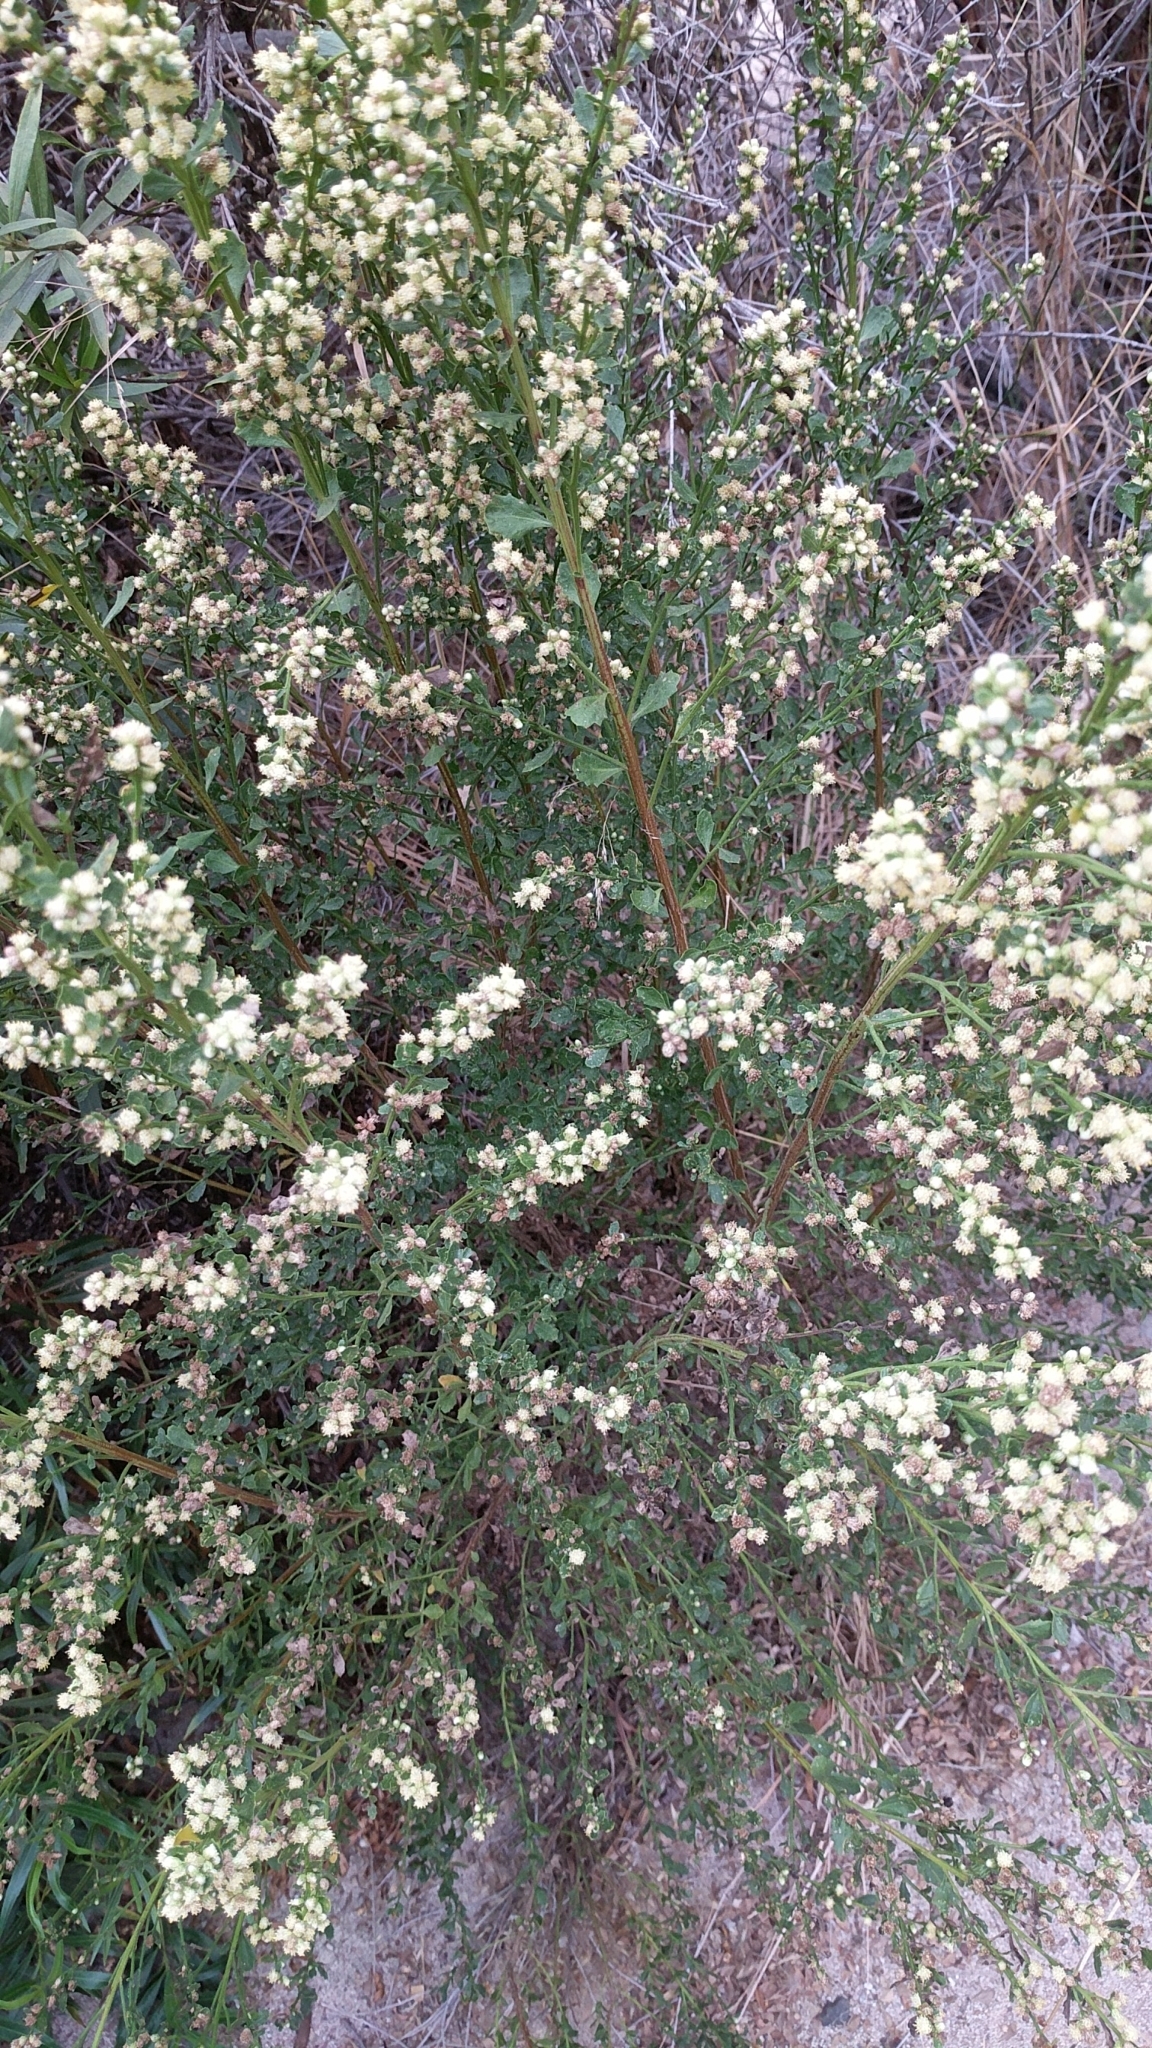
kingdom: Plantae
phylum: Tracheophyta
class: Magnoliopsida
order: Asterales
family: Asteraceae
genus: Baccharis
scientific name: Baccharis pilularis
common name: Coyotebrush
